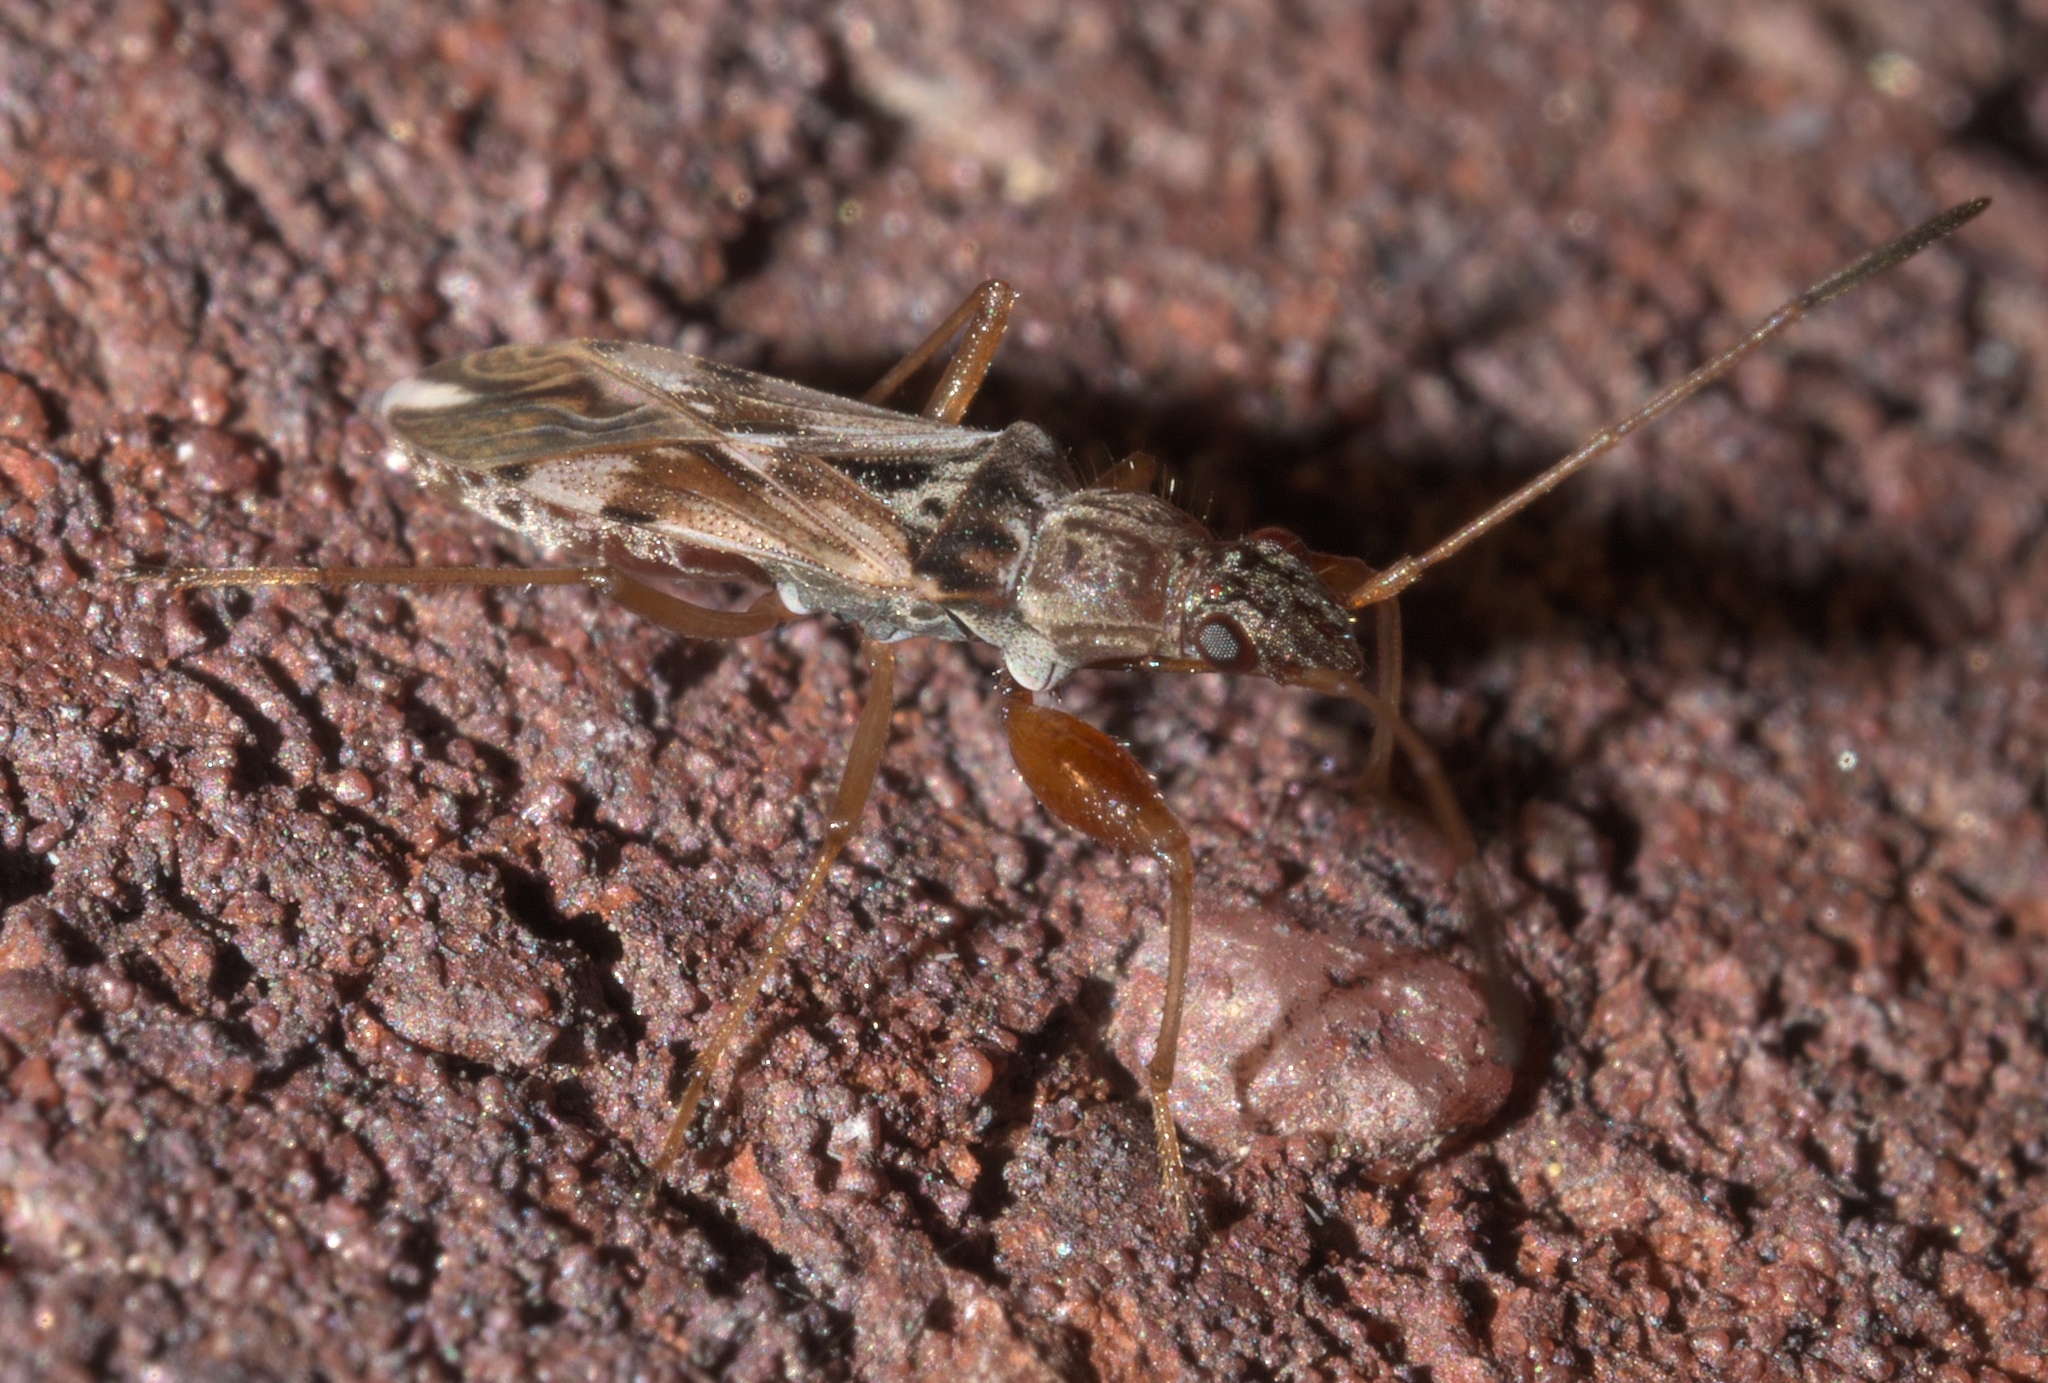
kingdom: Animalia
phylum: Arthropoda
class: Insecta
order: Hemiptera
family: Rhyparochromidae
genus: Neopamera
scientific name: Neopamera bilobata
